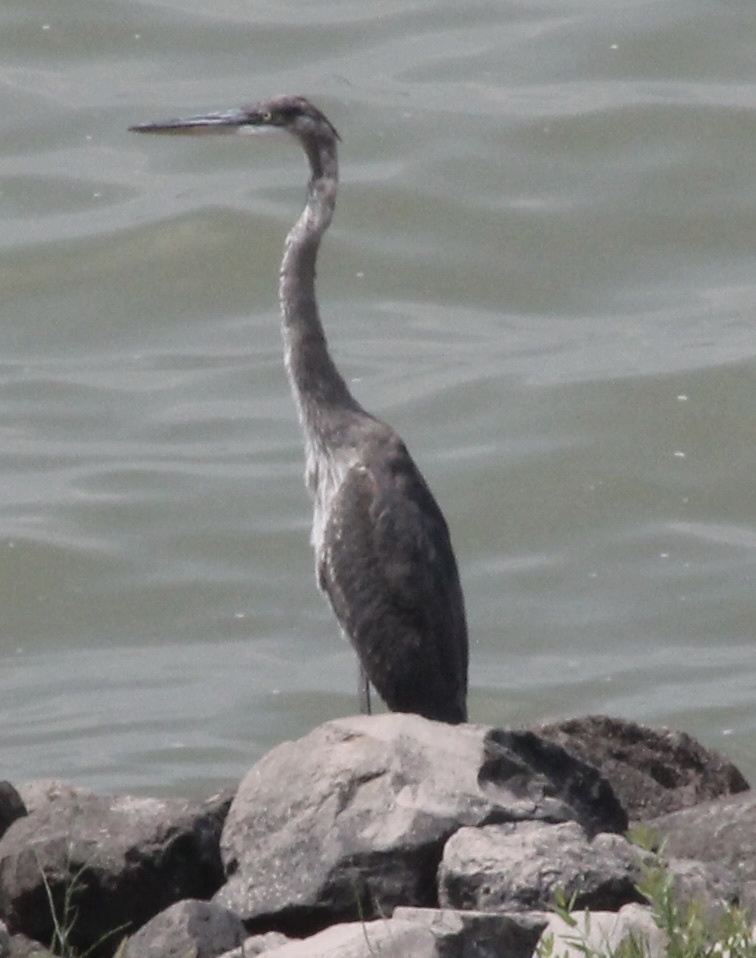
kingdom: Animalia
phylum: Chordata
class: Aves
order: Pelecaniformes
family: Ardeidae
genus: Ardea
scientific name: Ardea herodias
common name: Great blue heron
